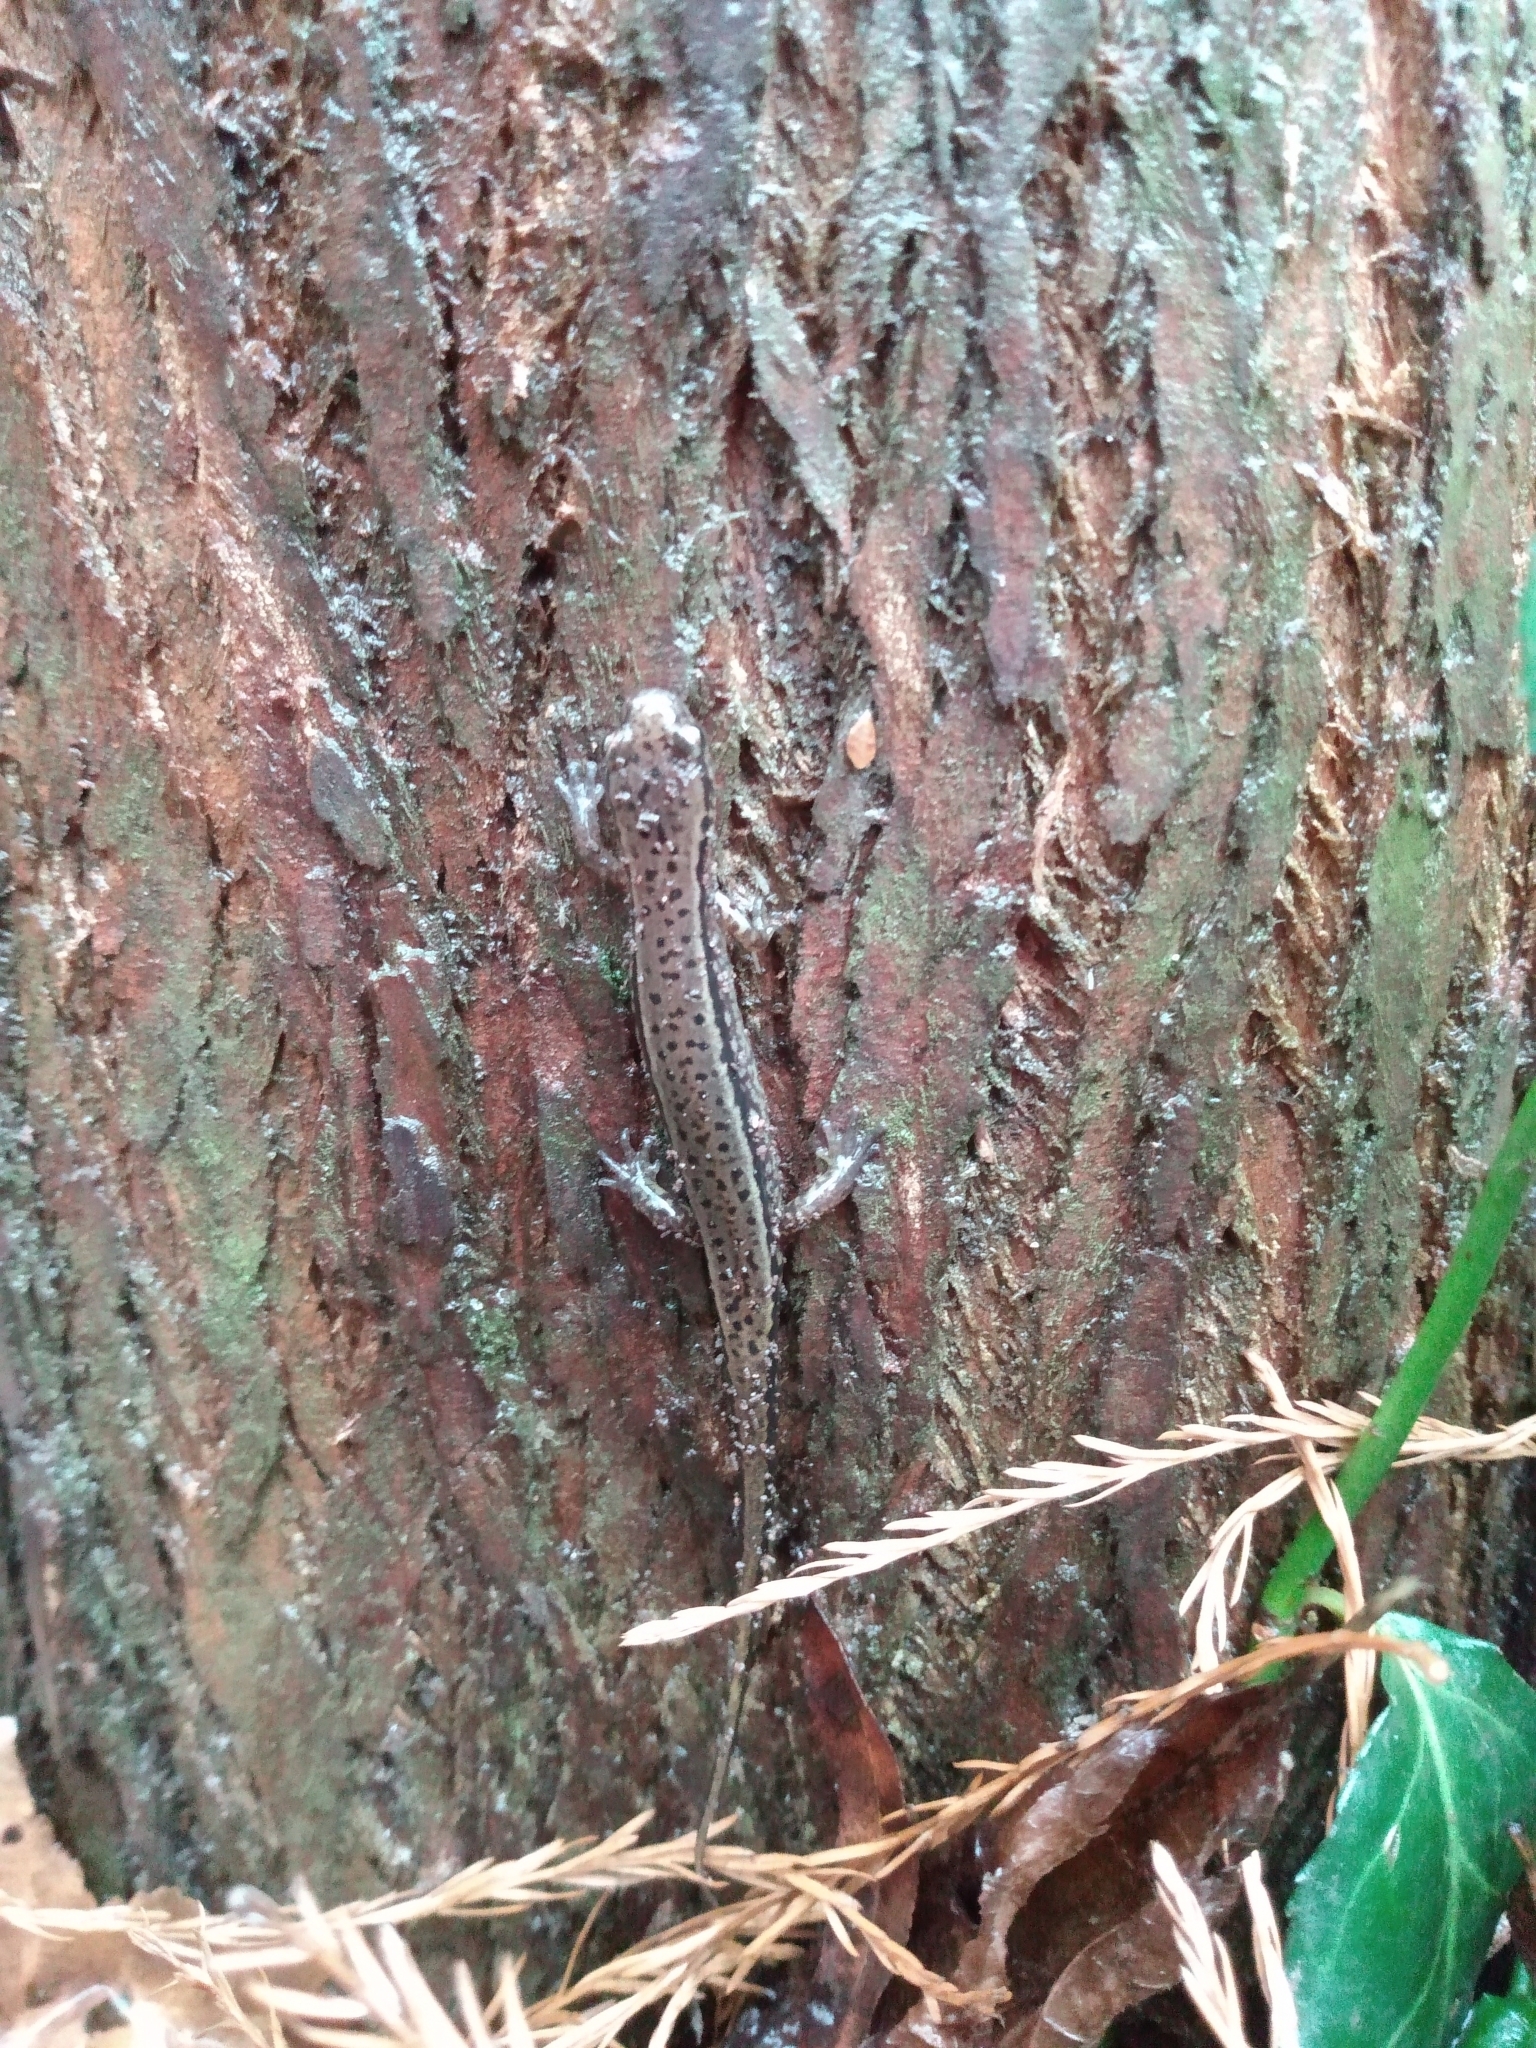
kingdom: Animalia
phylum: Chordata
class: Amphibia
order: Caudata
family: Plethodontidae
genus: Eurycea
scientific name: Eurycea cirrigera
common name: Southern two-lined salamander
